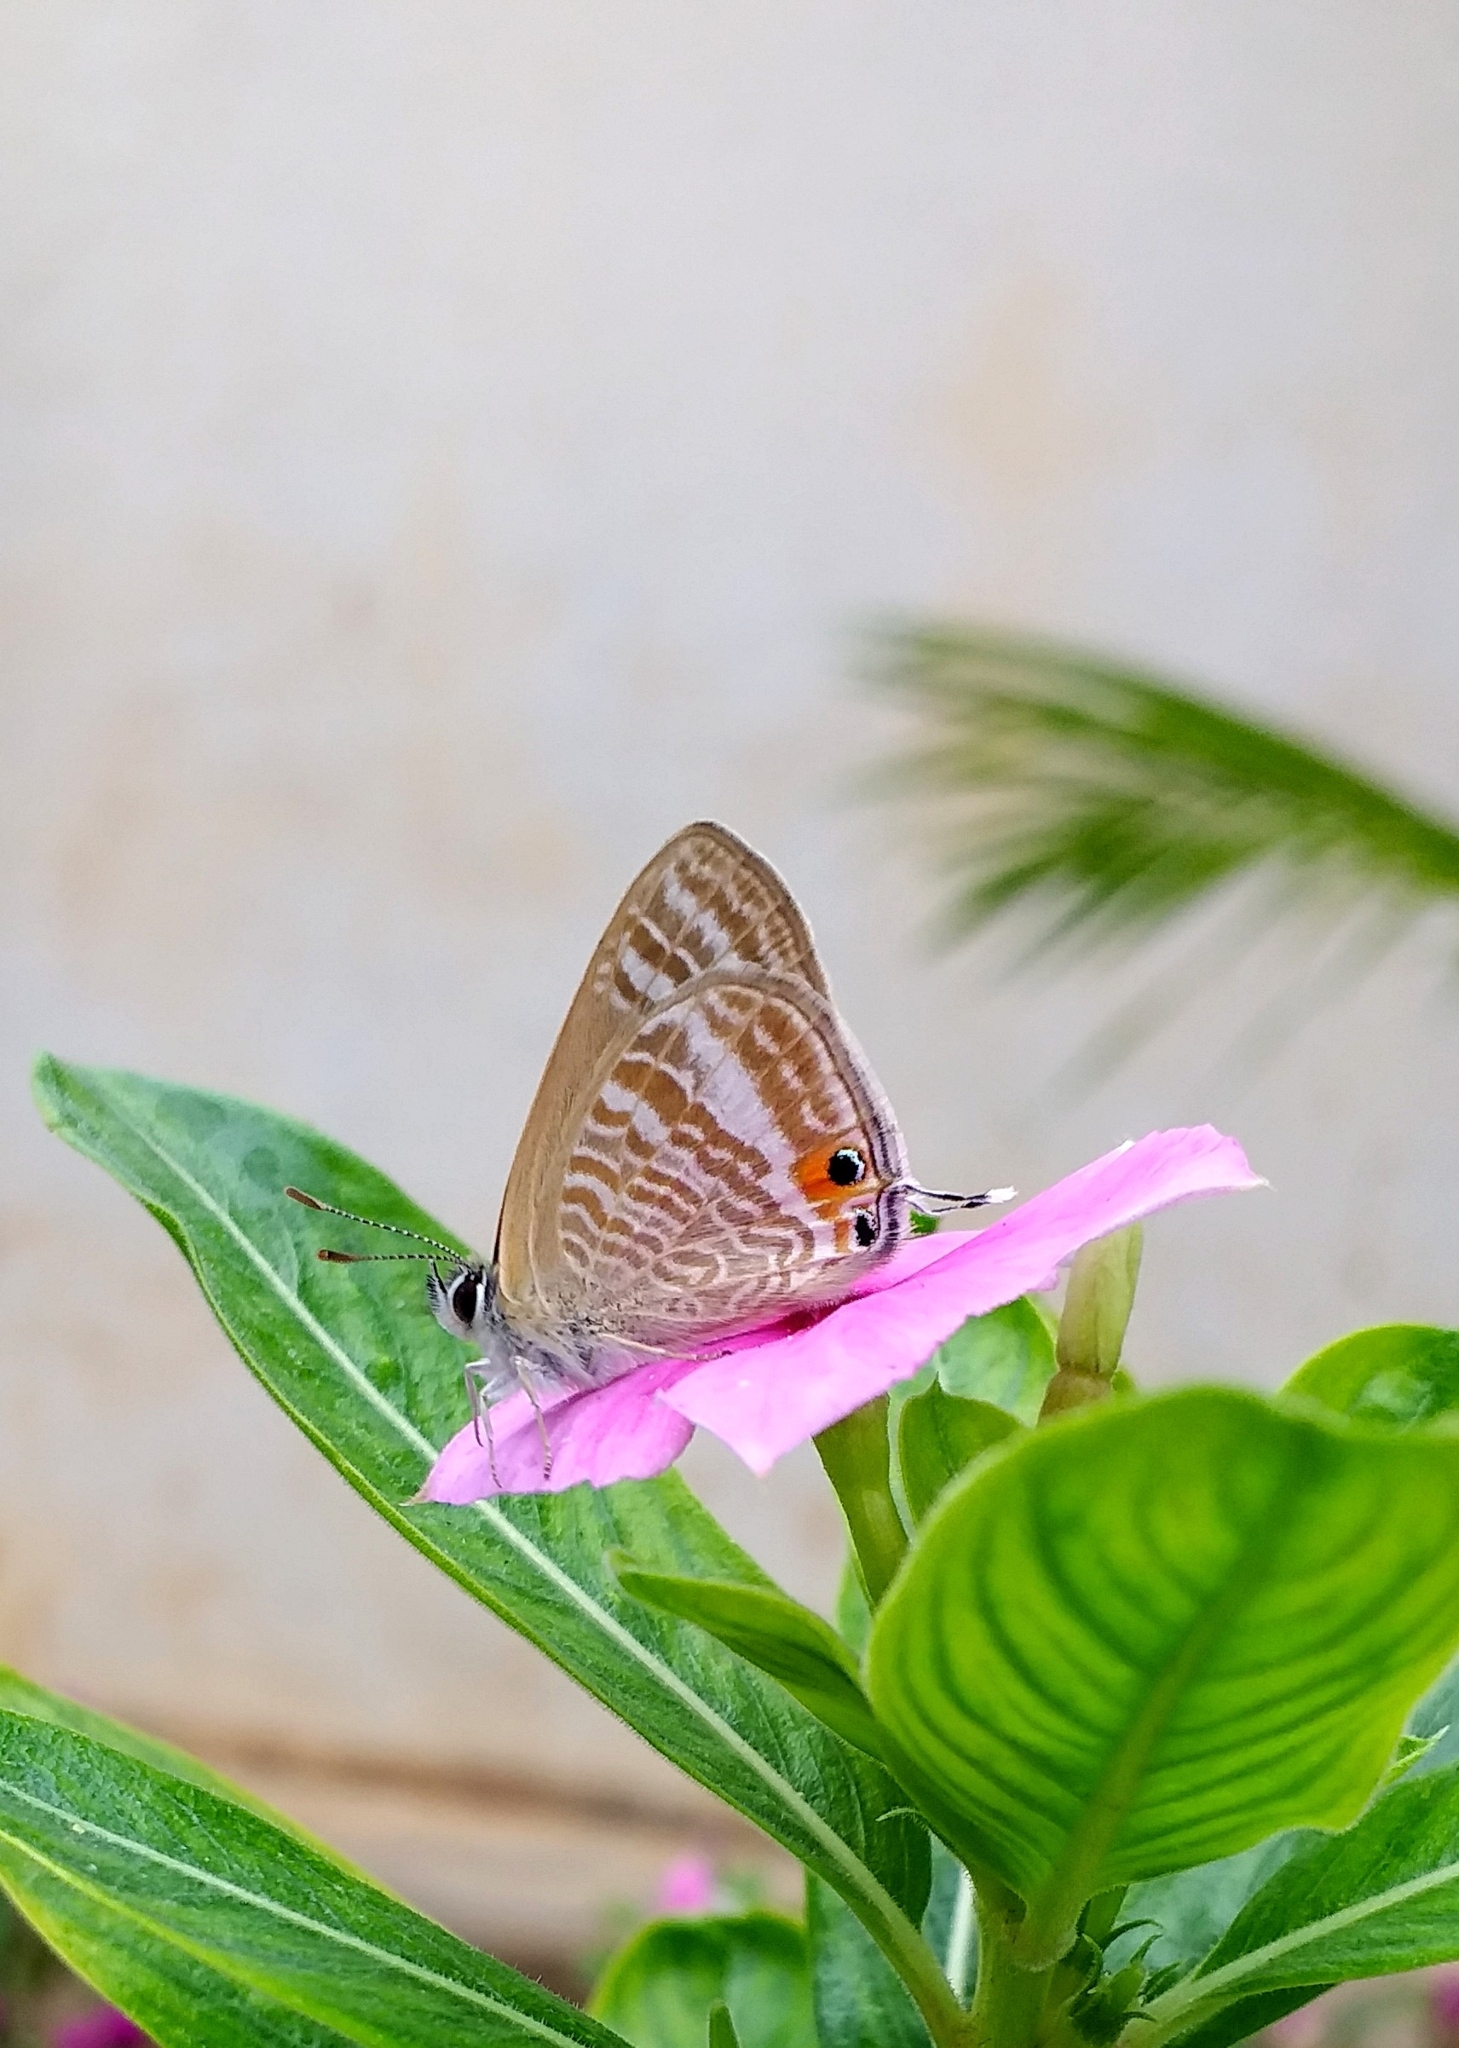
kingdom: Animalia
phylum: Arthropoda
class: Insecta
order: Lepidoptera
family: Lycaenidae
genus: Lampides
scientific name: Lampides boeticus
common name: Long-tailed blue
